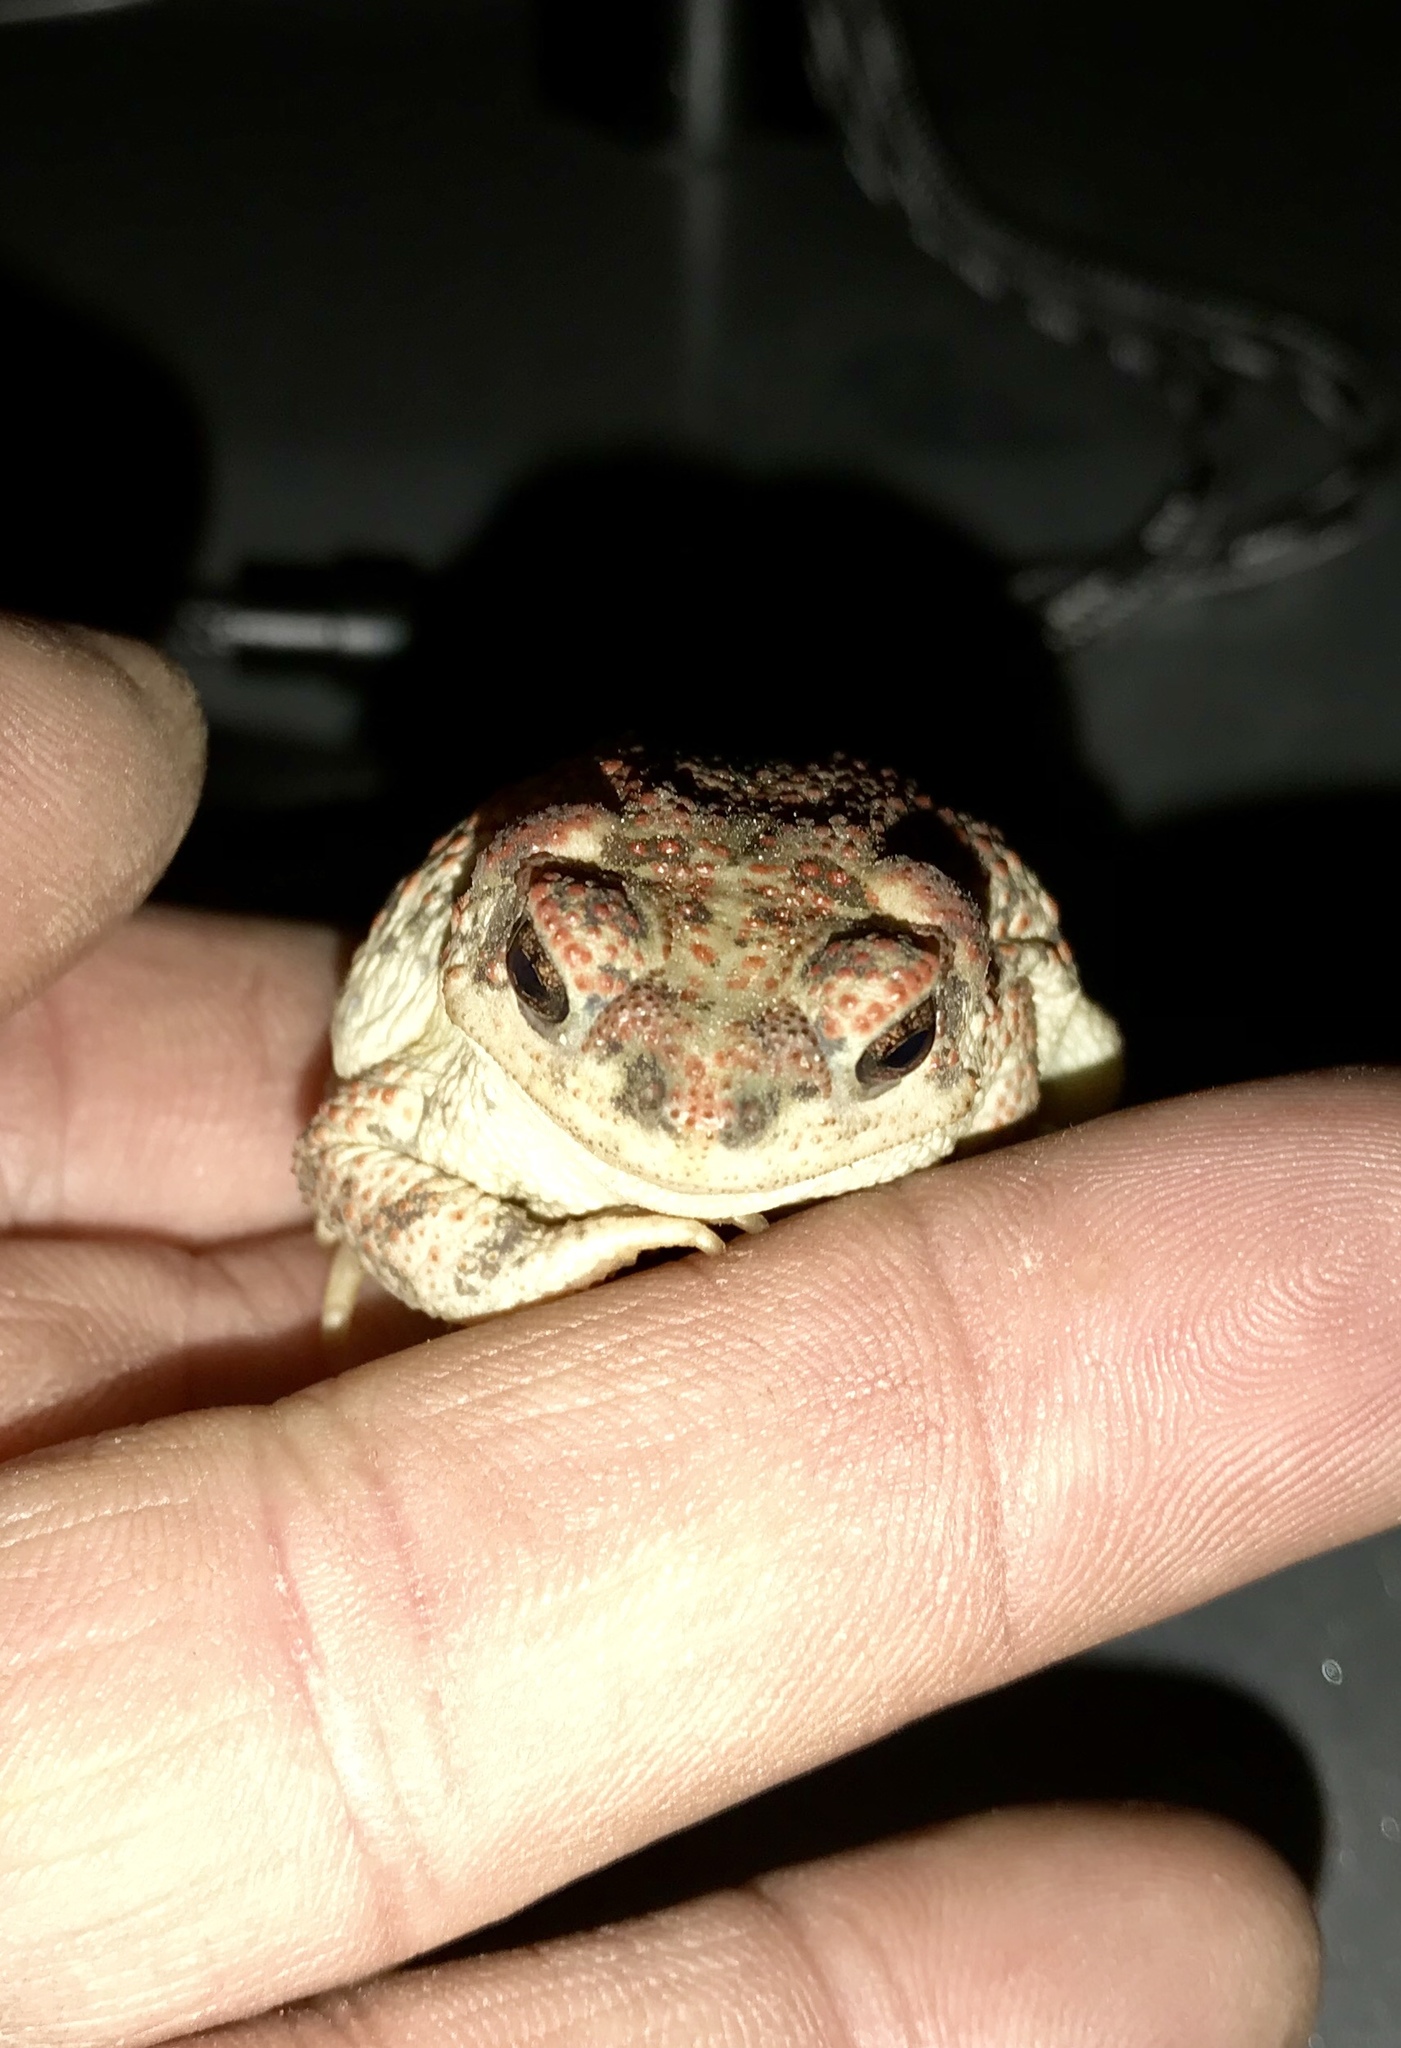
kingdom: Animalia
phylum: Chordata
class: Amphibia
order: Anura
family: Bufonidae
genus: Anaxyrus
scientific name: Anaxyrus punctatus
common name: Red-spotted toad
